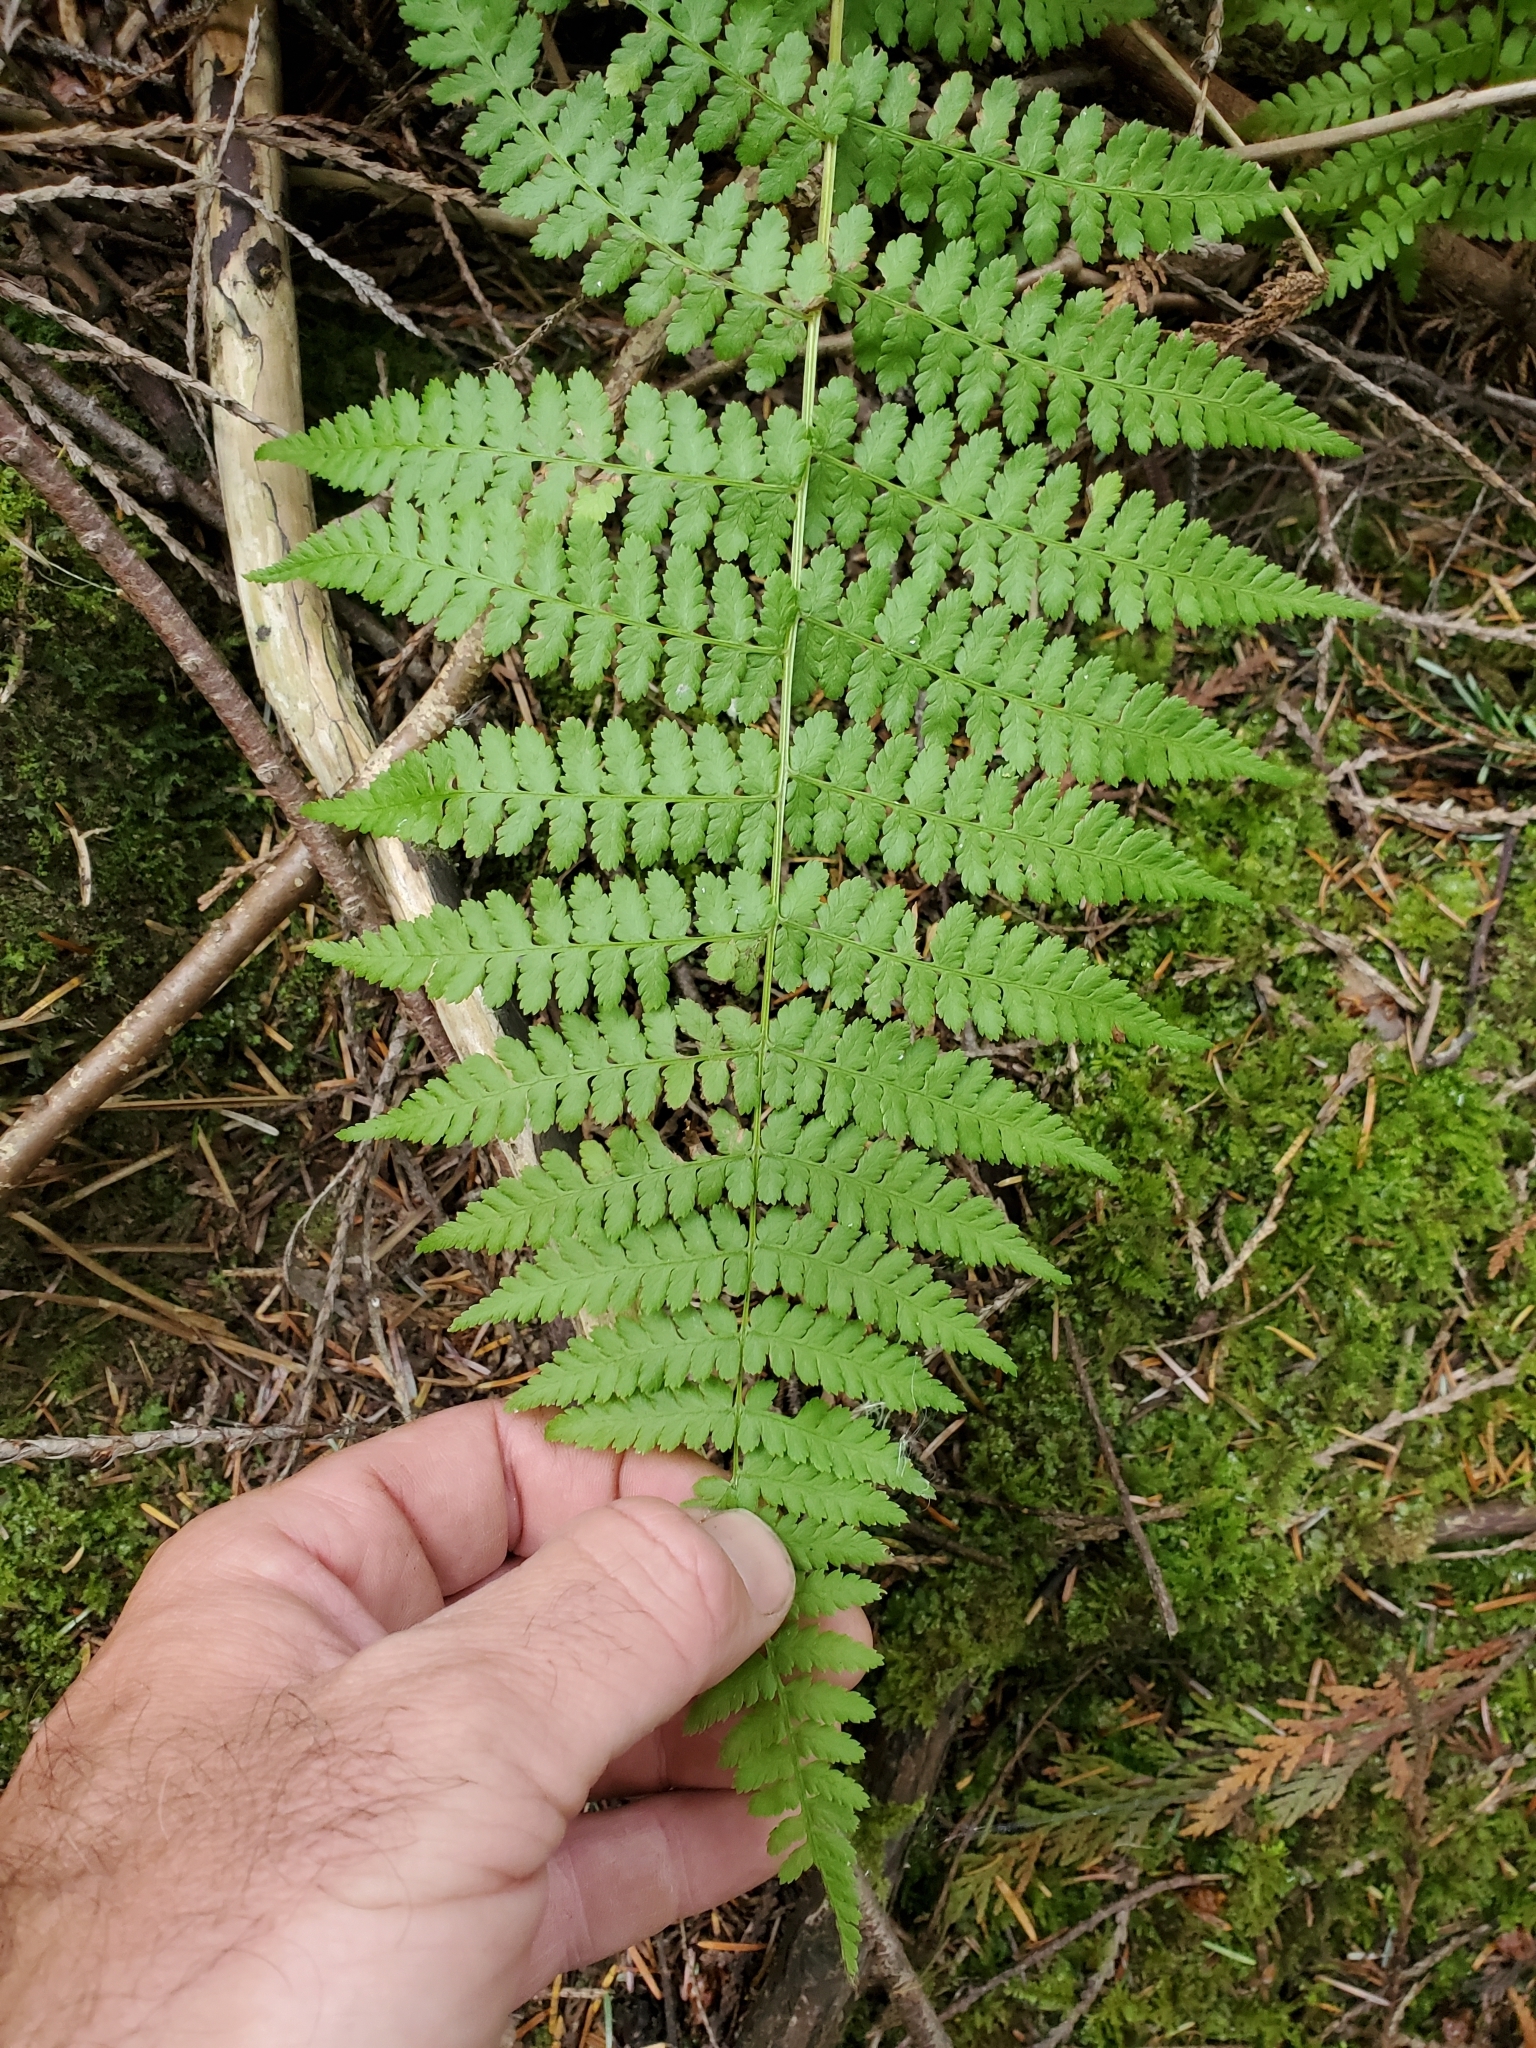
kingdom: Plantae
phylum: Tracheophyta
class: Polypodiopsida
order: Polypodiales
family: Athyriaceae
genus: Athyrium
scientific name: Athyrium filix-femina
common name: Lady fern
